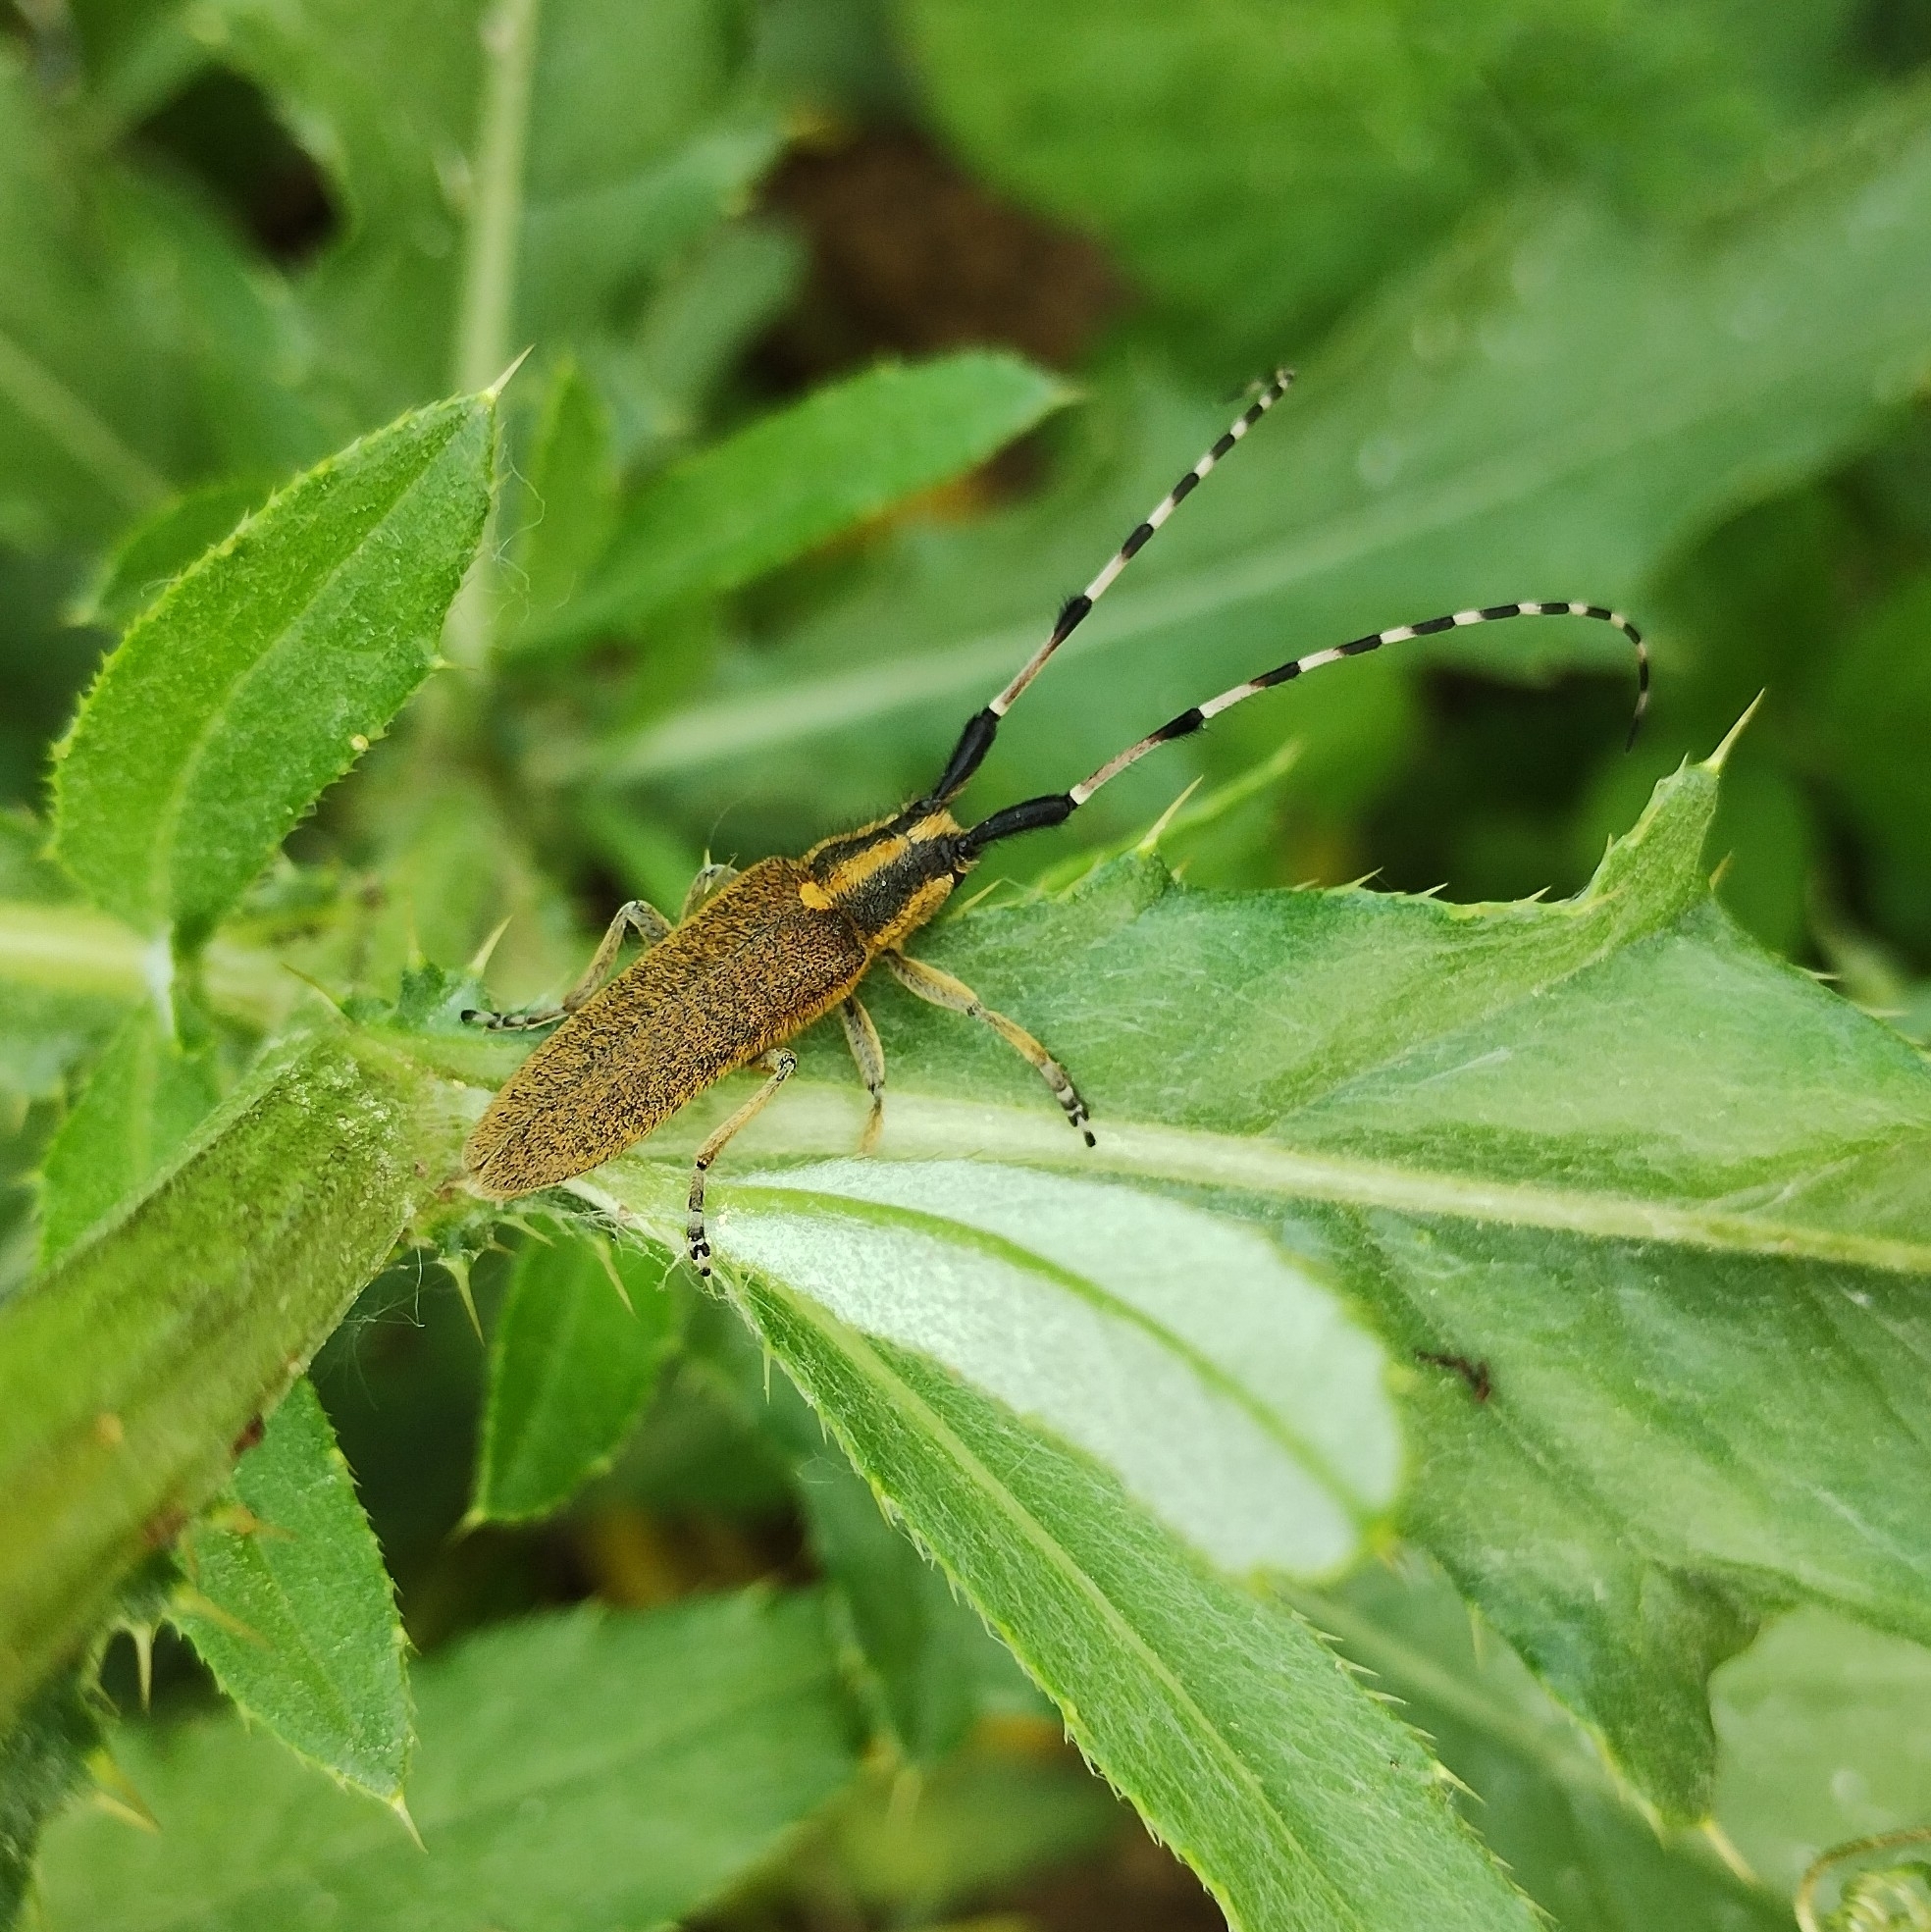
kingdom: Animalia
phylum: Arthropoda
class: Insecta
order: Coleoptera
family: Cerambycidae
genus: Agapanthia
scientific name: Agapanthia dahlii
